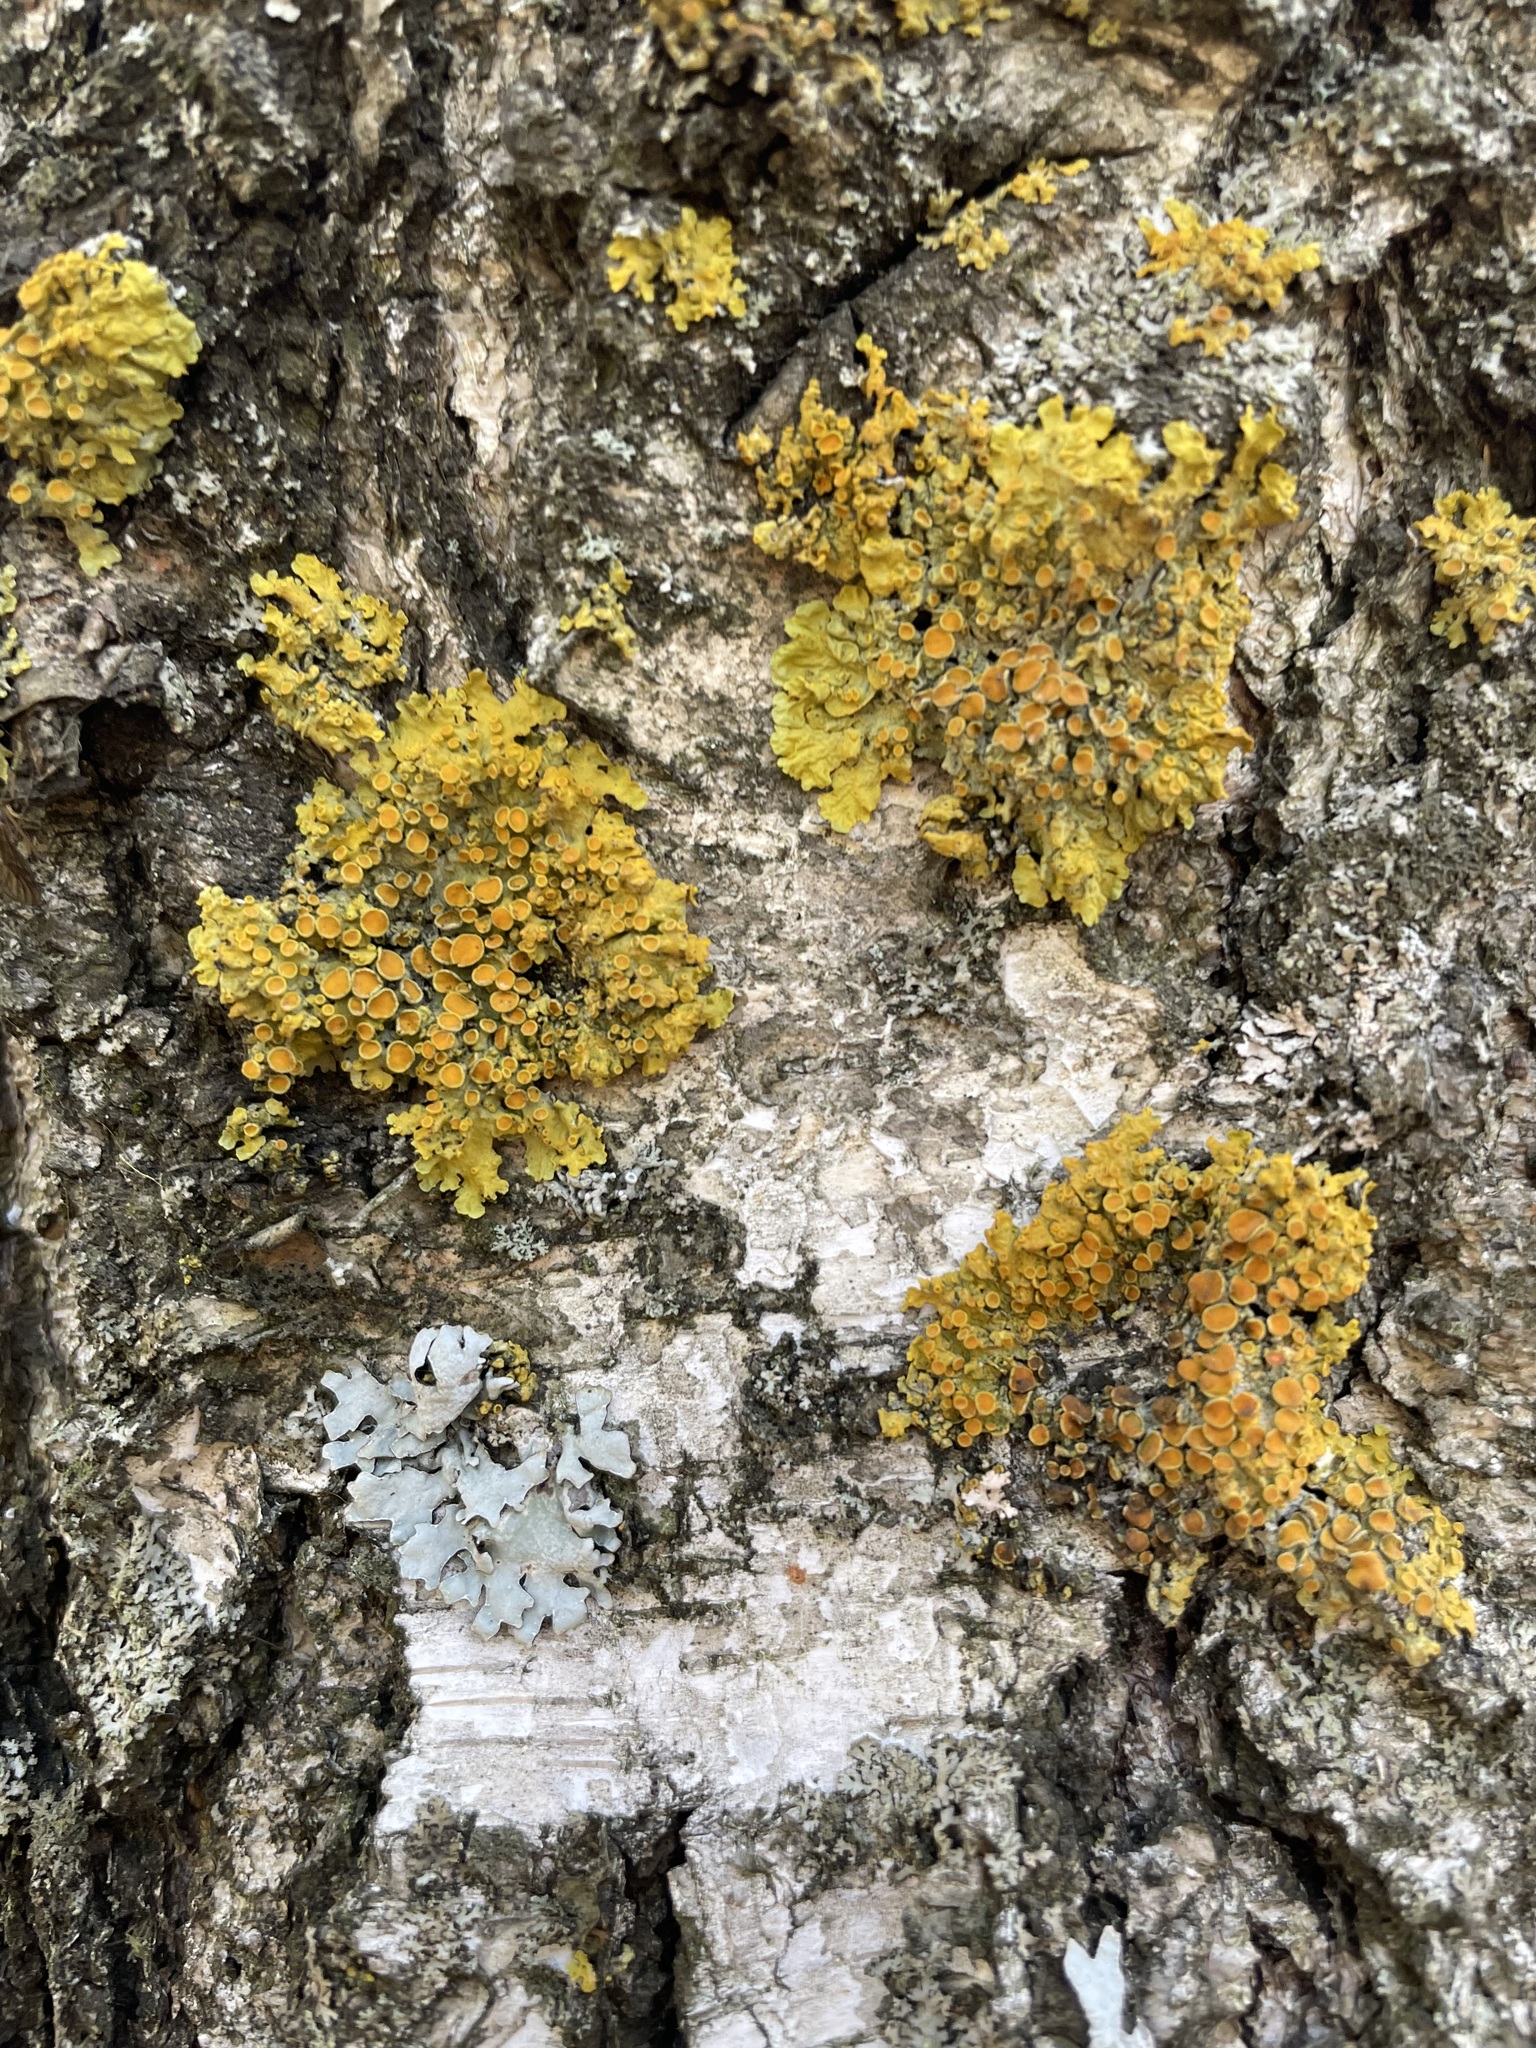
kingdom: Fungi
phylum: Ascomycota
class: Lecanoromycetes
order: Teloschistales
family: Teloschistaceae
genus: Xanthoria
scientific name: Xanthoria parietina
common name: Common orange lichen
